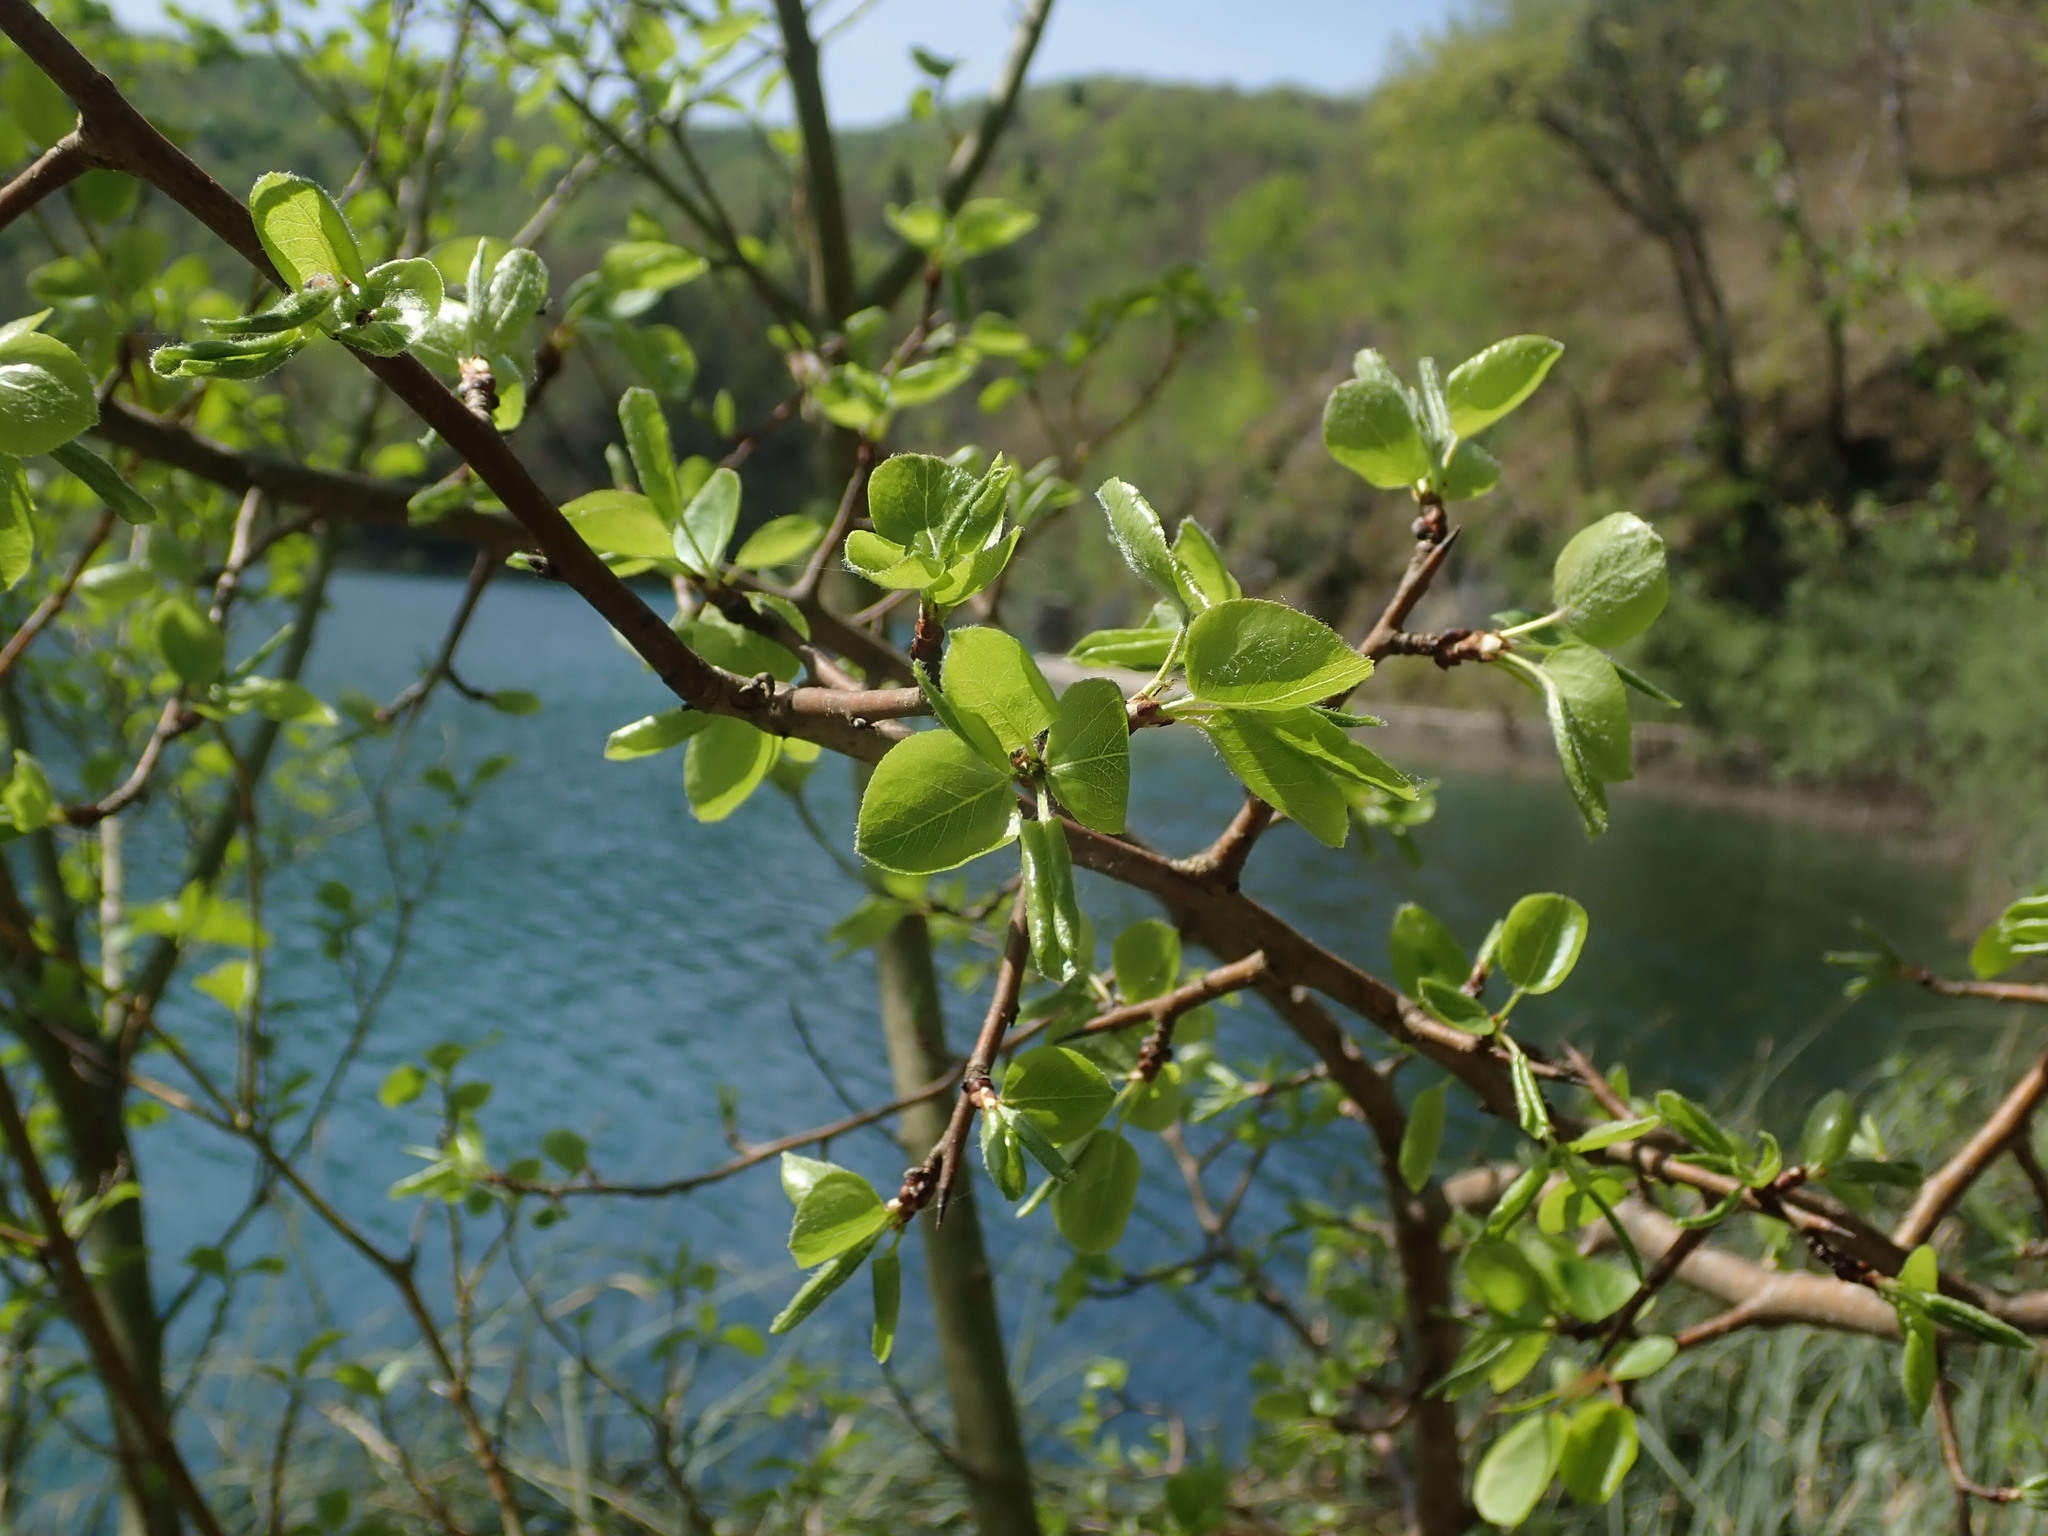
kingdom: Plantae
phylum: Tracheophyta
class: Magnoliopsida
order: Rosales
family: Rosaceae
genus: Pyrus
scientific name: Pyrus communis
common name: Pear
